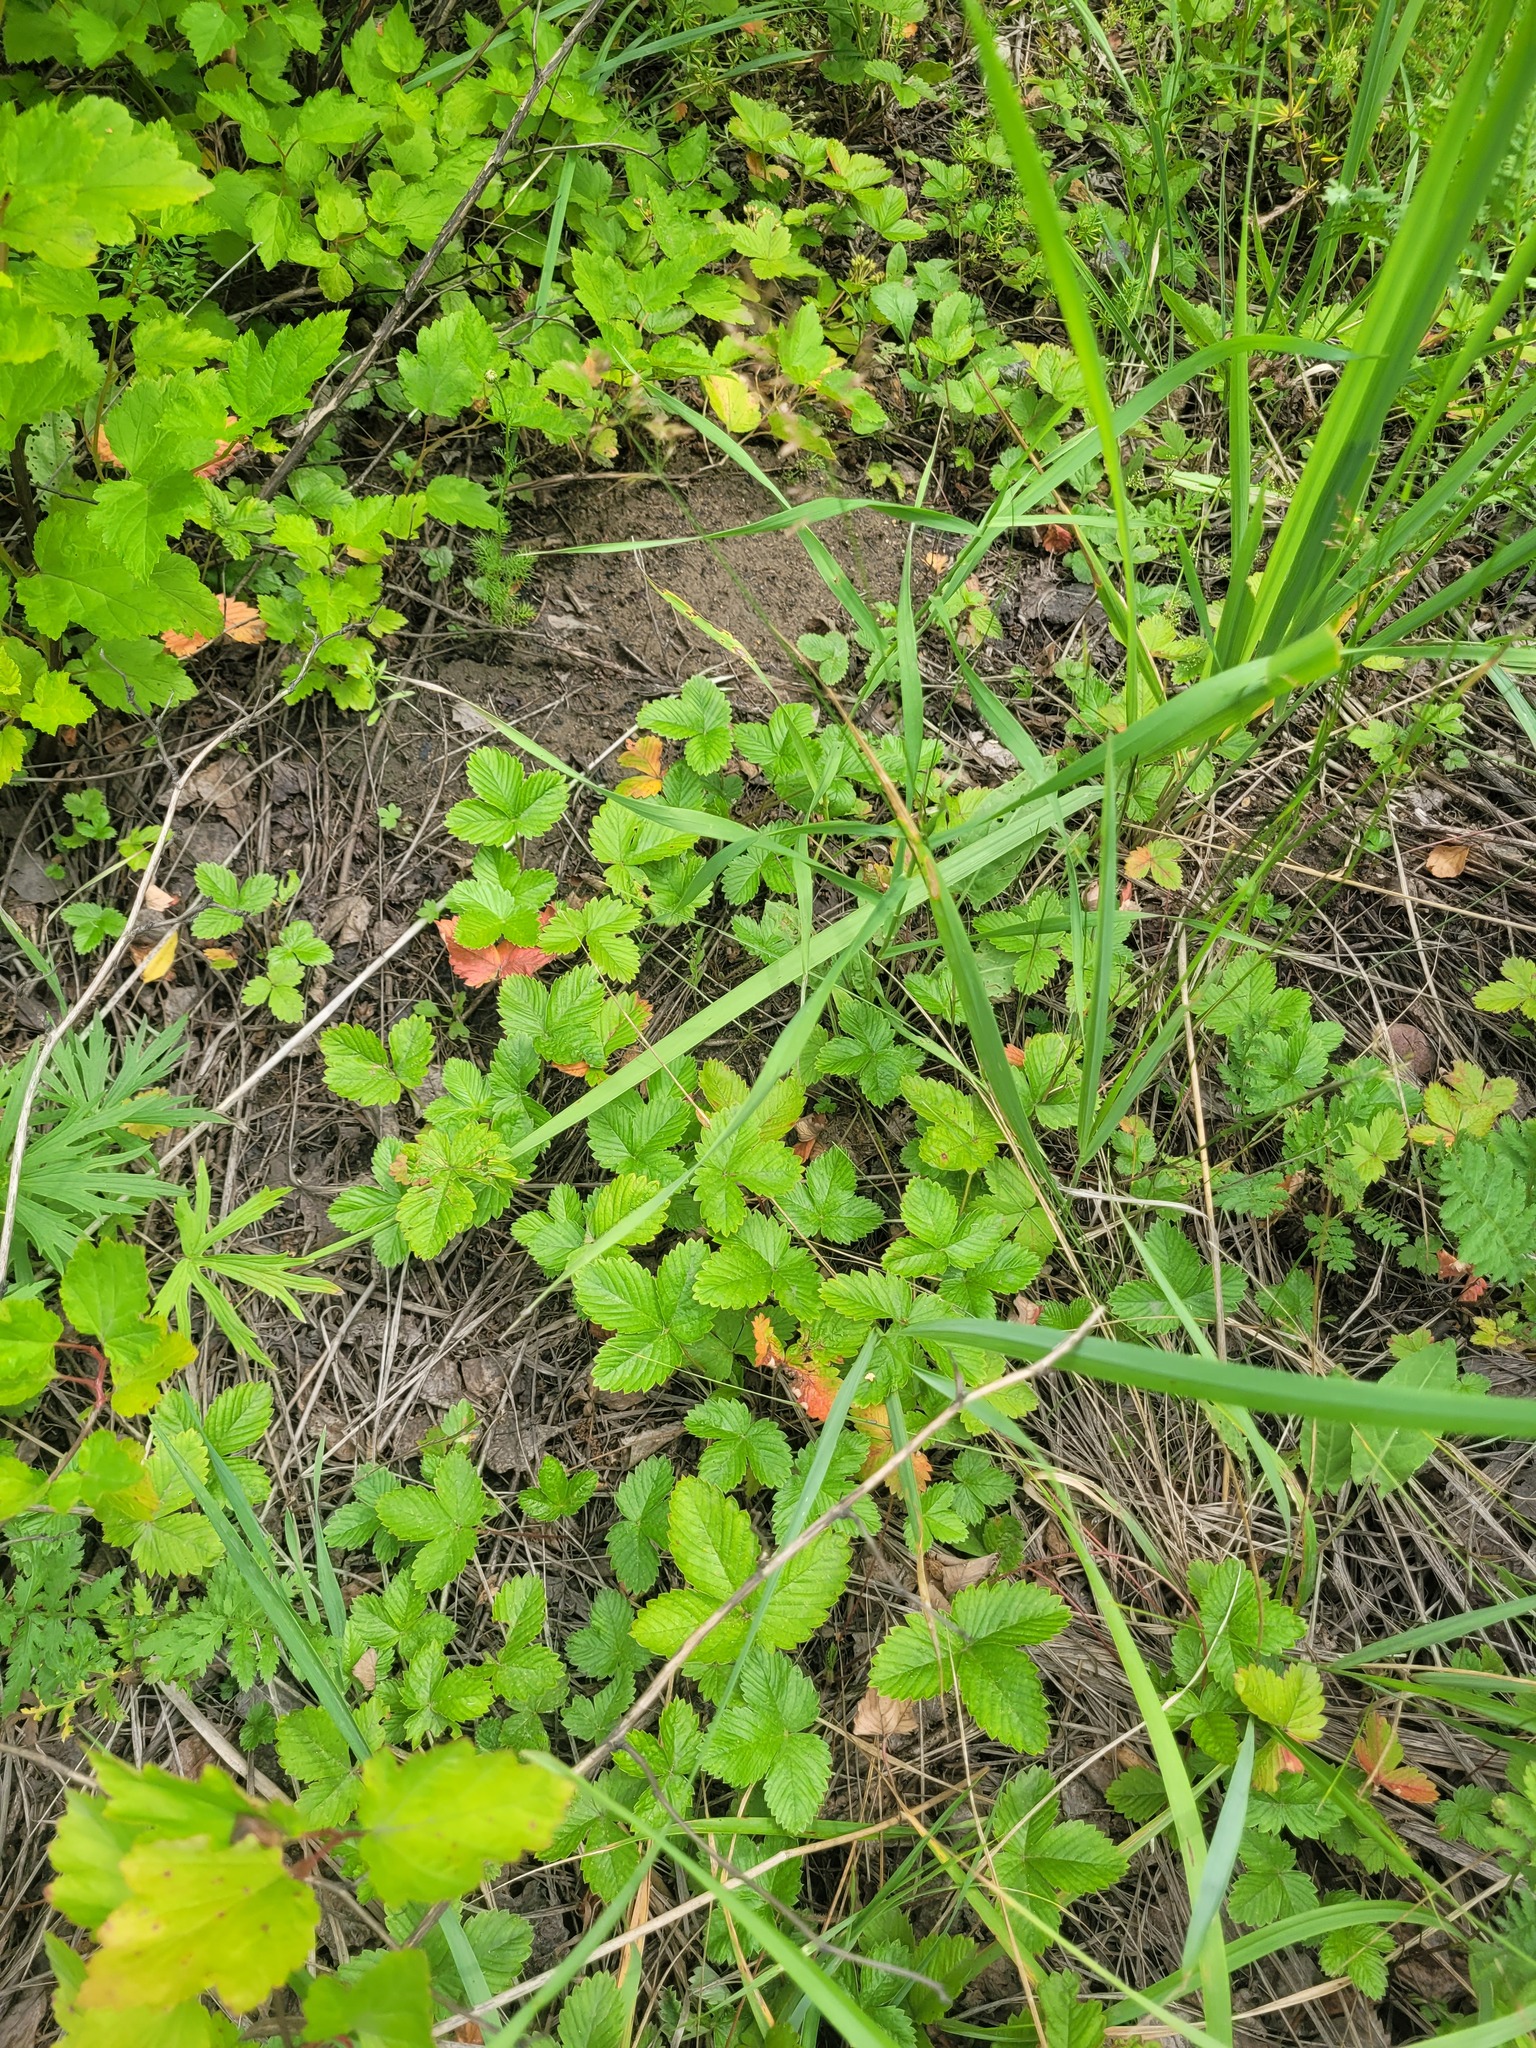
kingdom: Plantae
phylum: Tracheophyta
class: Magnoliopsida
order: Rosales
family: Rosaceae
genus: Fragaria
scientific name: Fragaria vesca
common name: Wild strawberry
